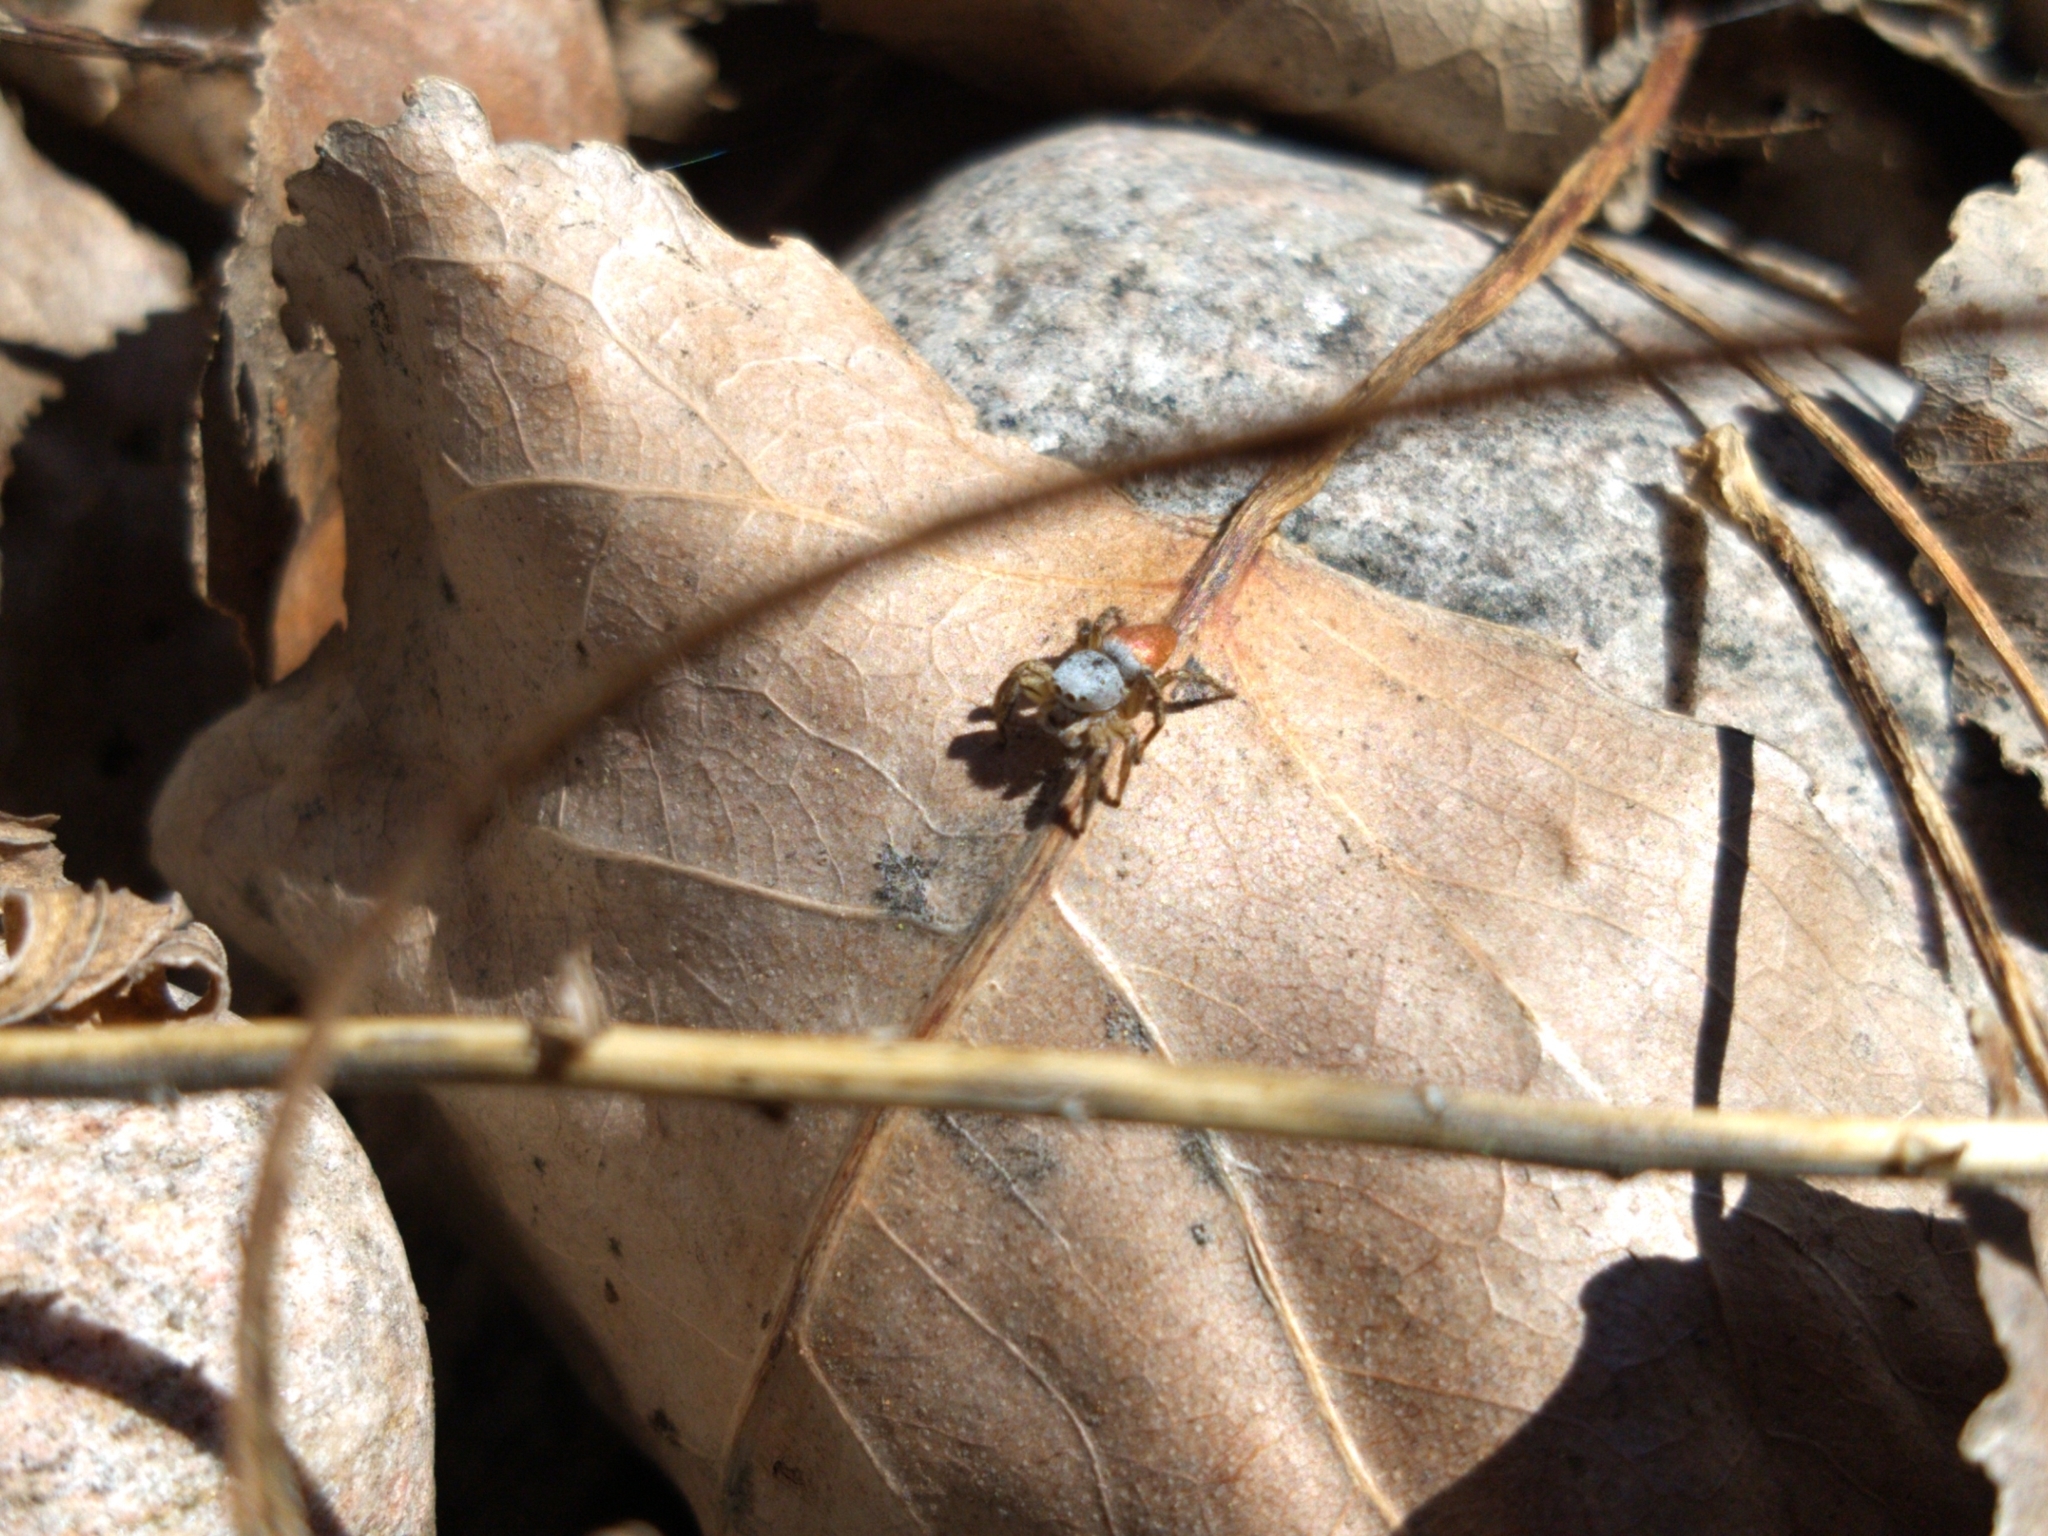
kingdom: Animalia
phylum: Arthropoda
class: Arachnida
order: Araneae
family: Salticidae
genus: Habronattus
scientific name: Habronattus decorus
